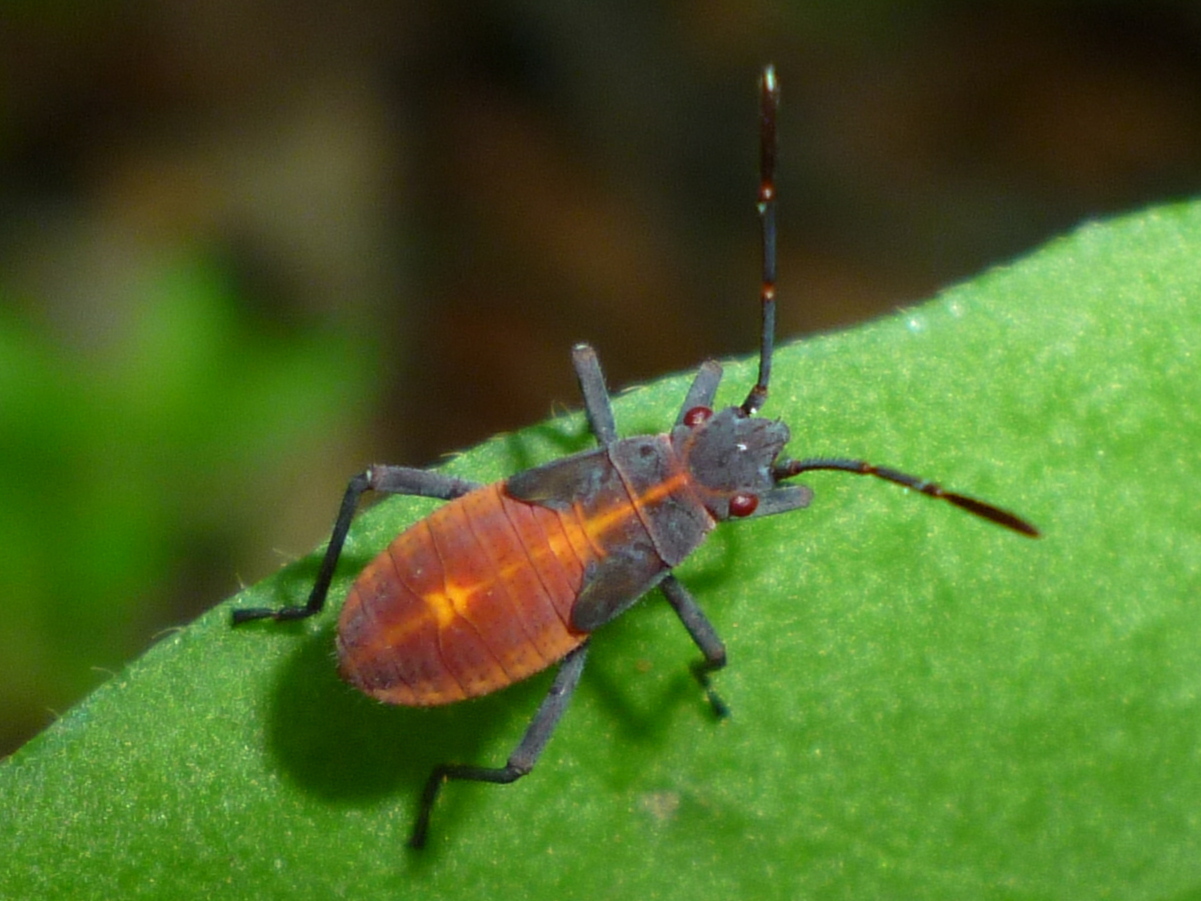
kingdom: Animalia
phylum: Arthropoda
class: Insecta
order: Hemiptera
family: Rhopalidae
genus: Boisea
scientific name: Boisea trivittata
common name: Boxelder bug
